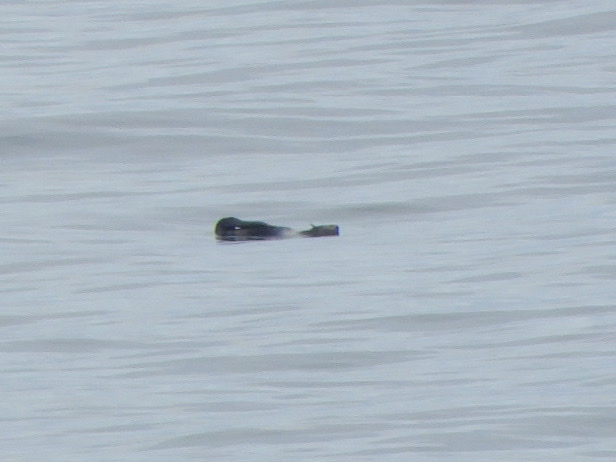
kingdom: Animalia
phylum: Chordata
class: Mammalia
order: Carnivora
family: Otariidae
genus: Callorhinus
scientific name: Callorhinus ursinus
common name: Northern fur seal
